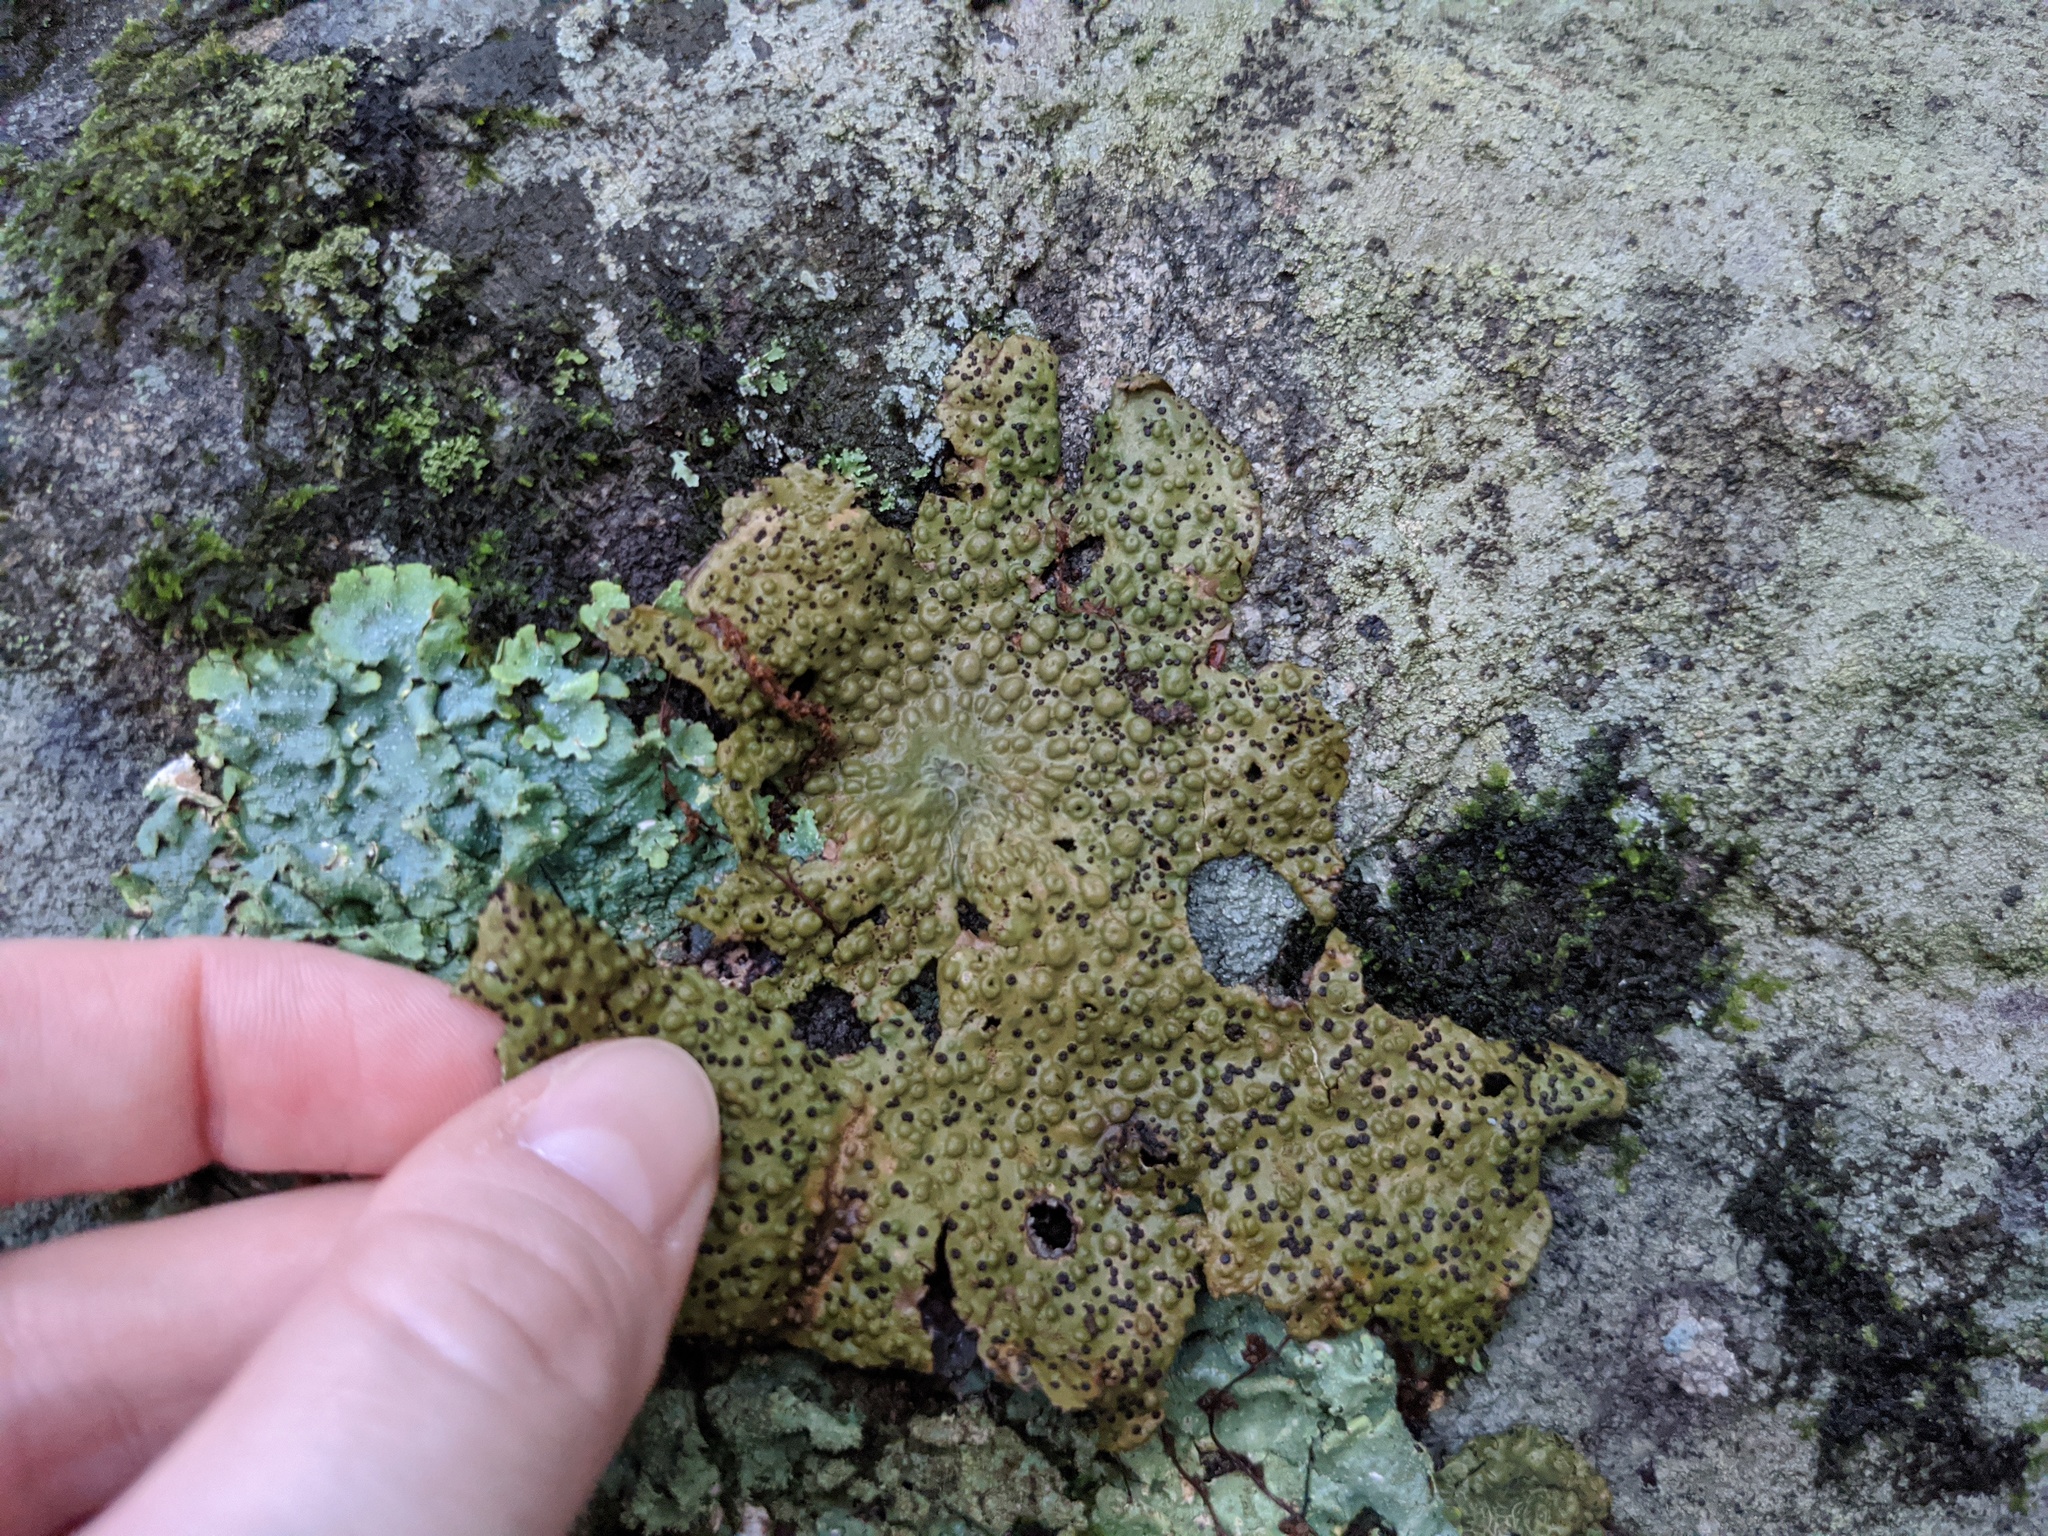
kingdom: Fungi
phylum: Ascomycota
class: Lecanoromycetes
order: Umbilicariales
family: Umbilicariaceae
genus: Lasallia
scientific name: Lasallia papulosa
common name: Common toadskin lichen
